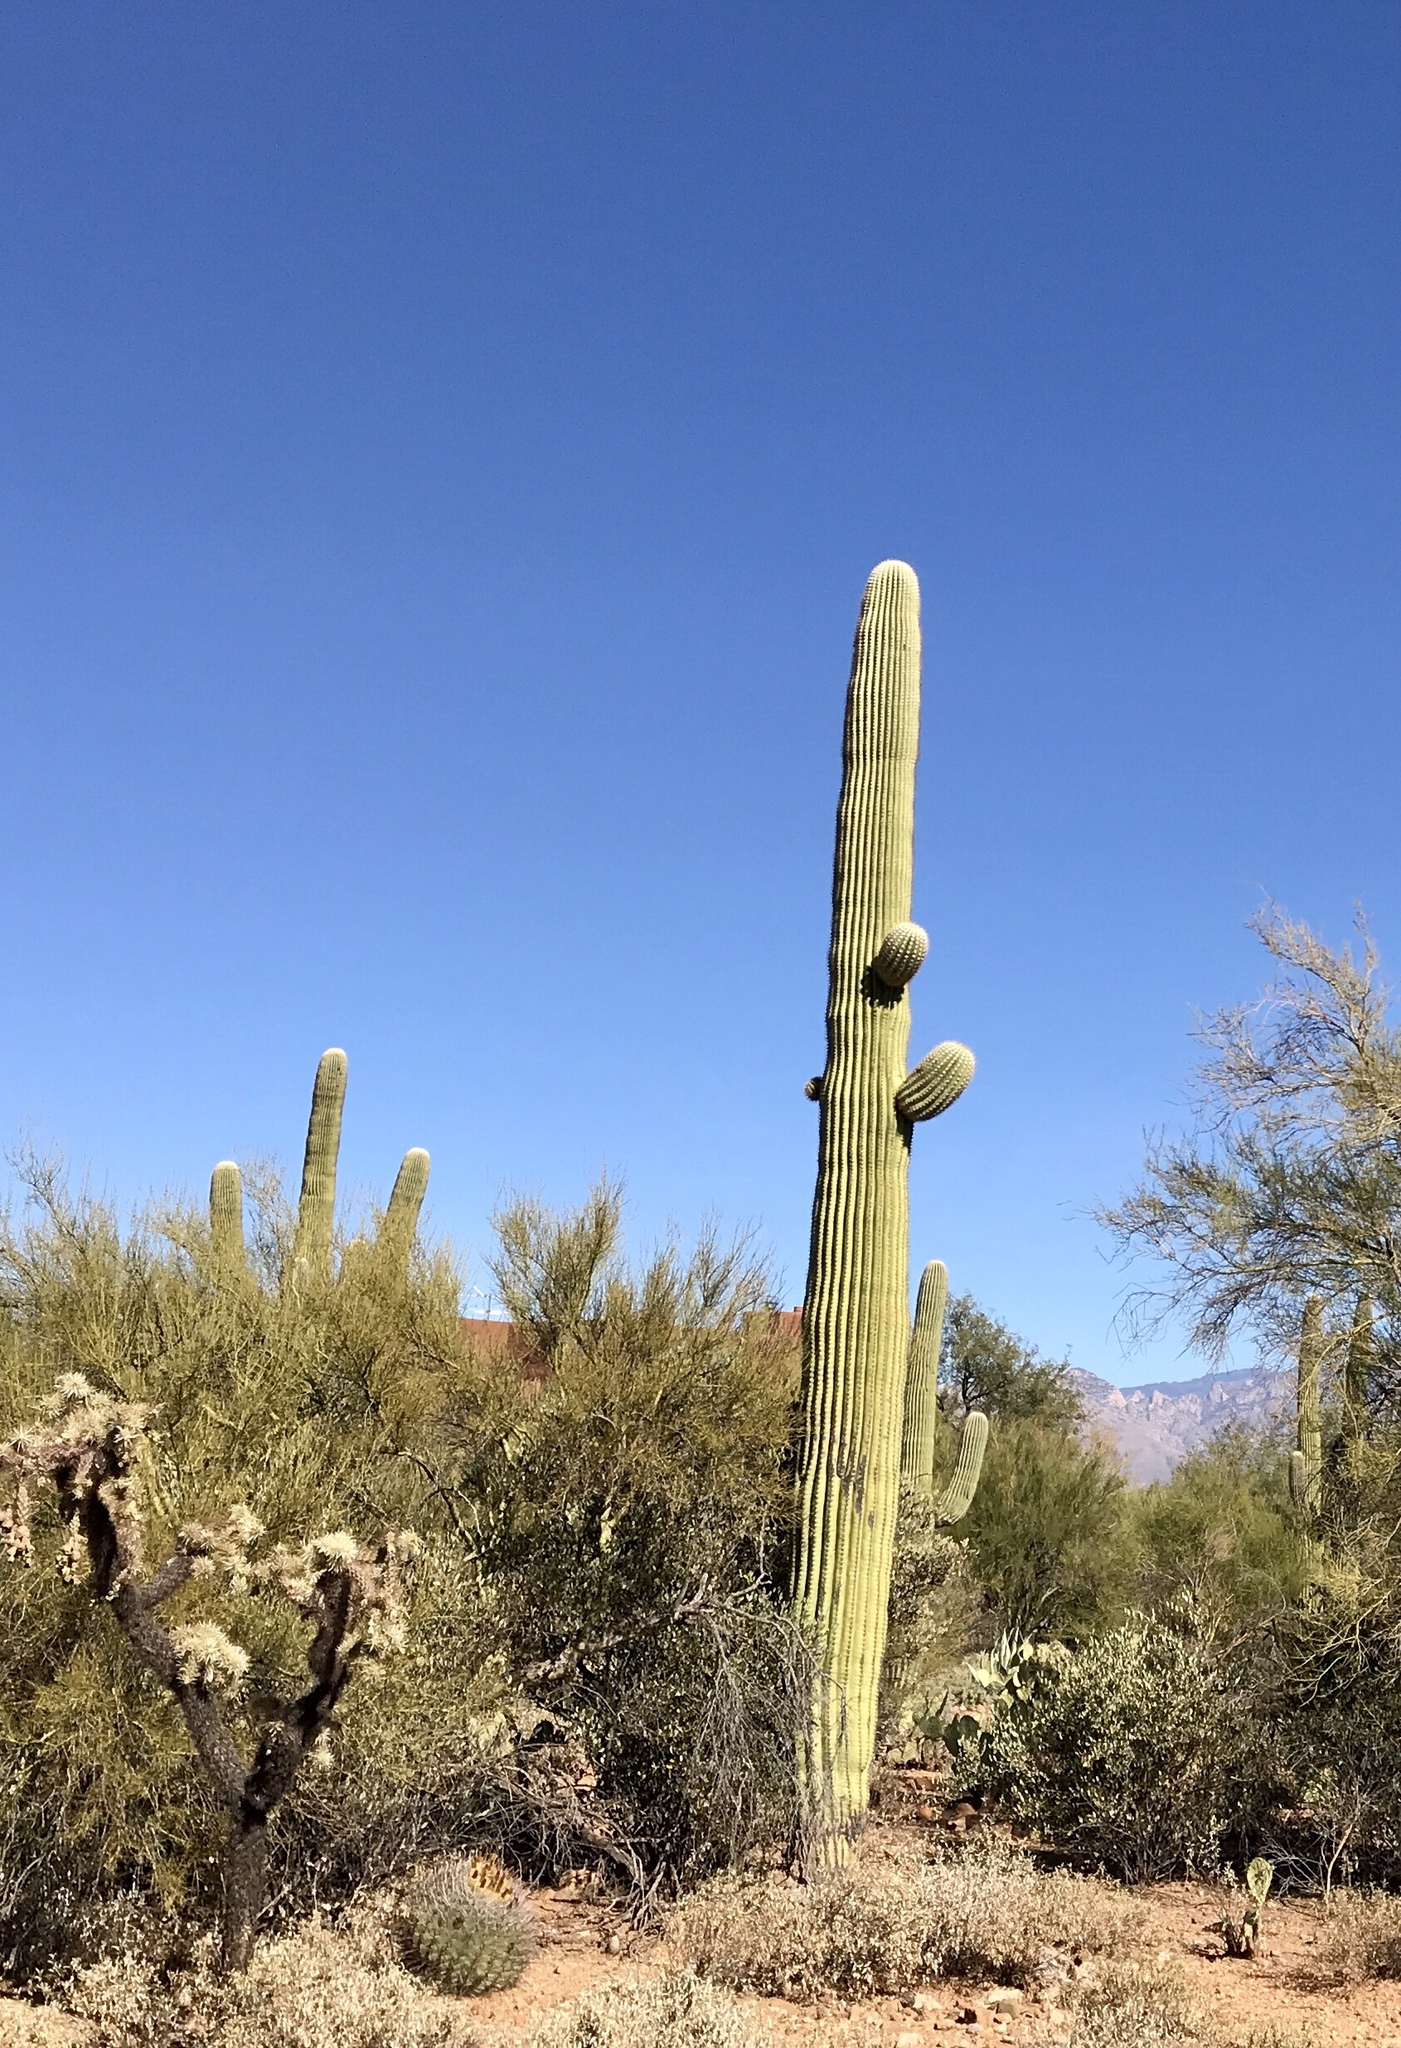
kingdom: Plantae
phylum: Tracheophyta
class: Magnoliopsida
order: Caryophyllales
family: Cactaceae
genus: Carnegiea
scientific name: Carnegiea gigantea
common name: Saguaro
